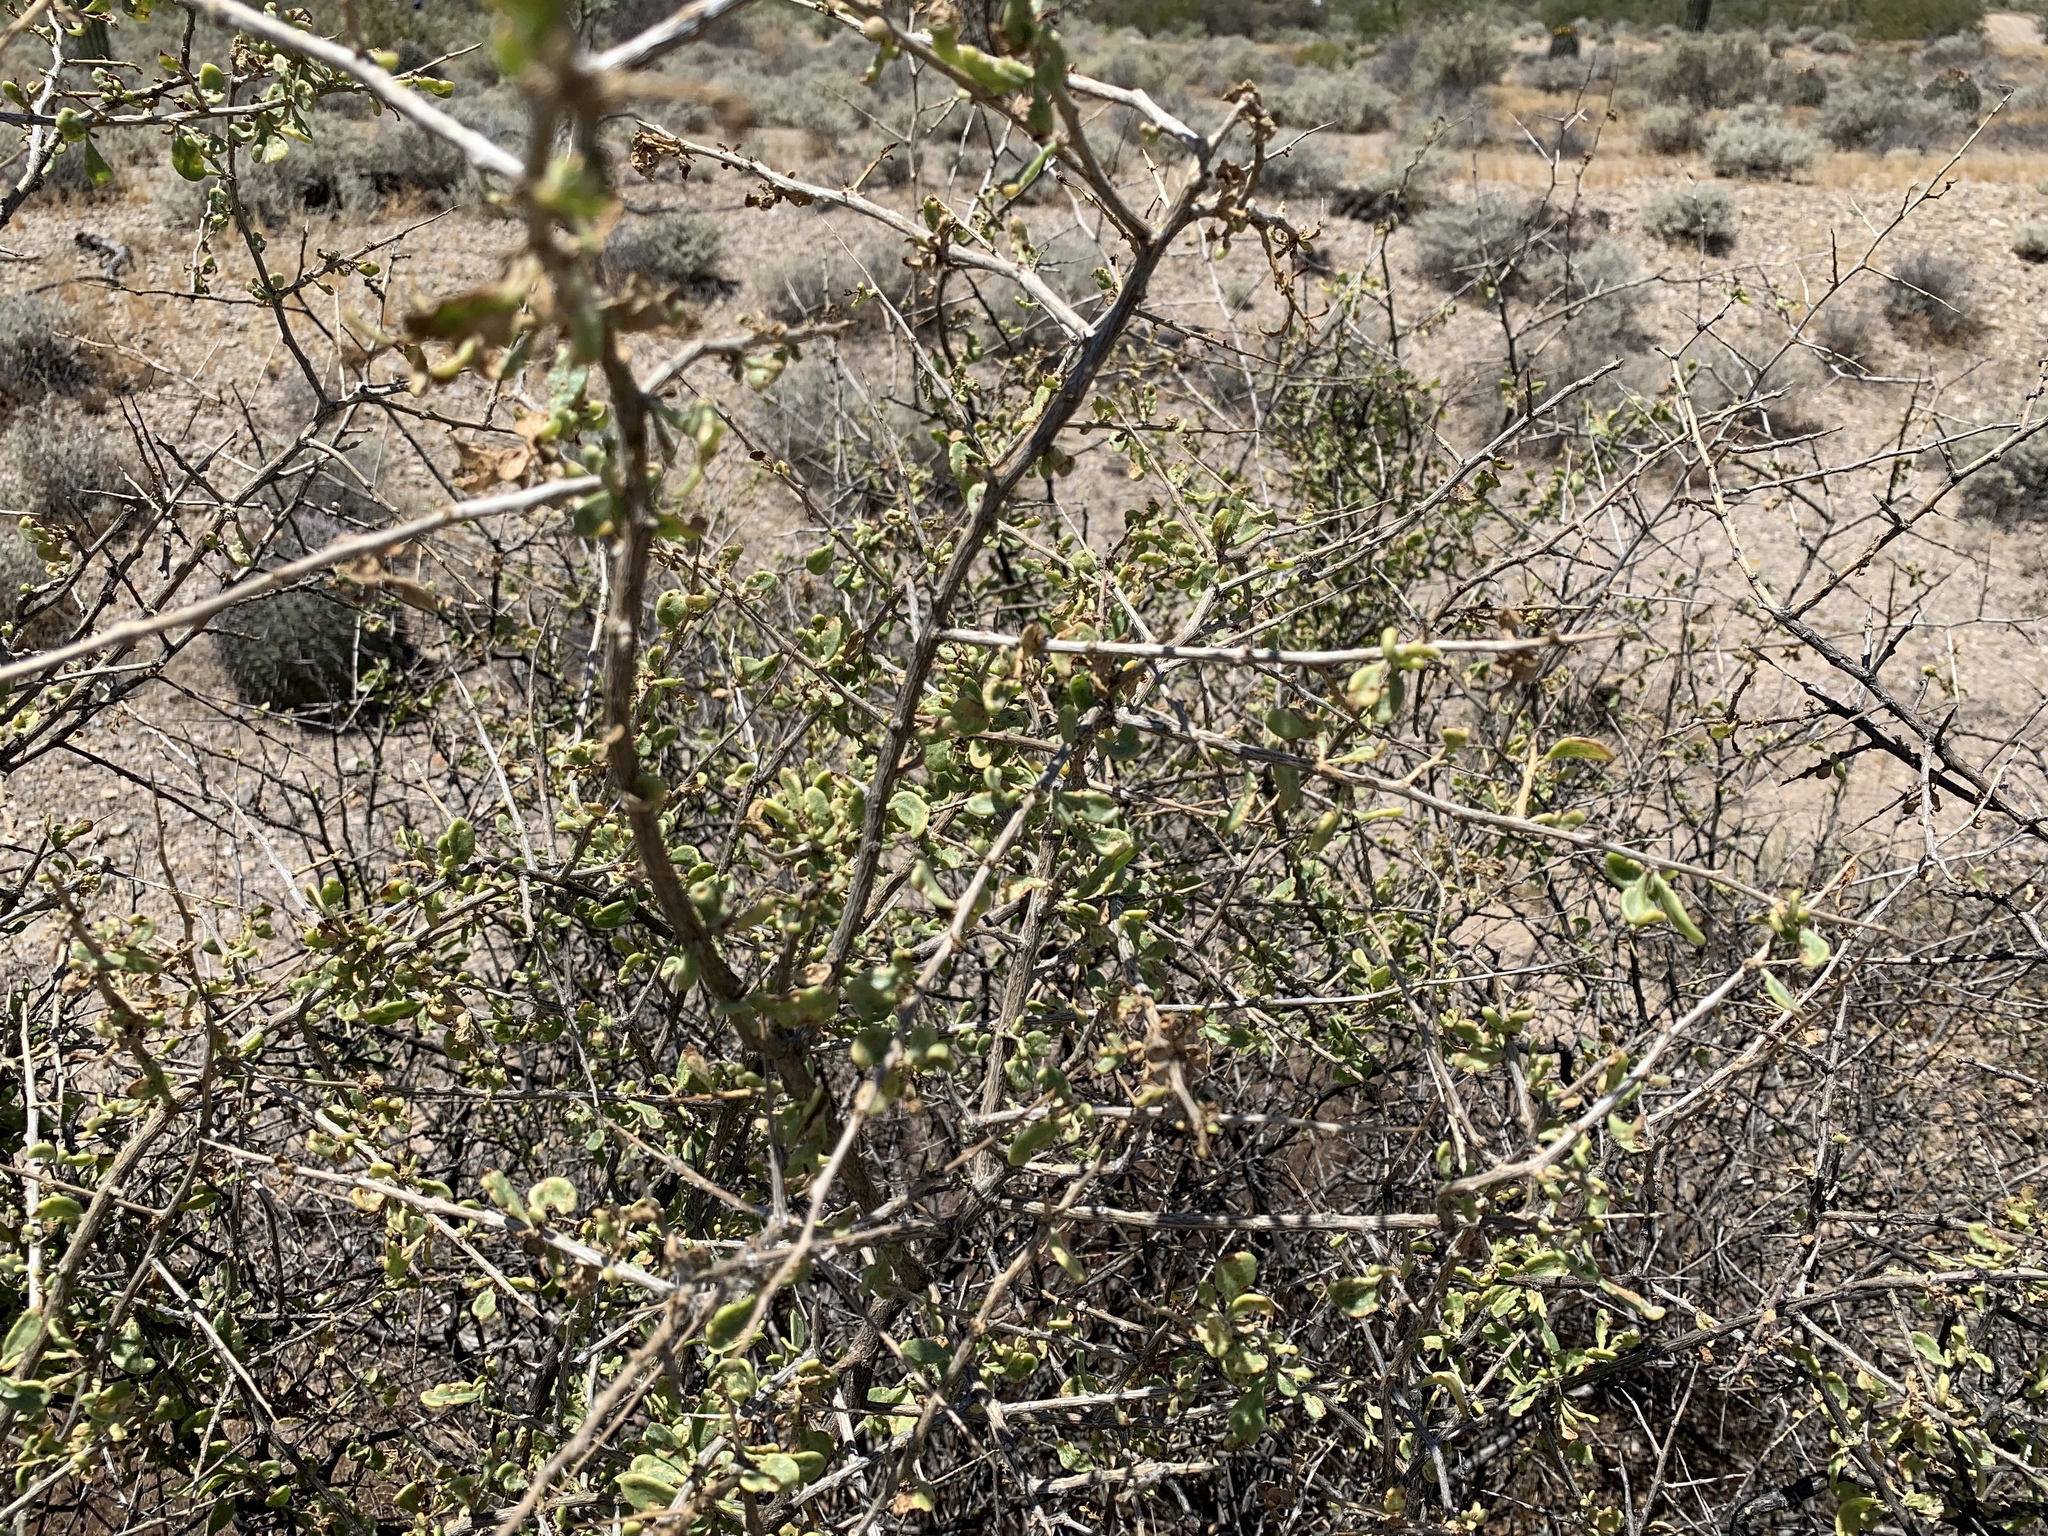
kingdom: Plantae
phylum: Tracheophyta
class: Magnoliopsida
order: Solanales
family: Solanaceae
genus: Lycium
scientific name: Lycium exsertum
